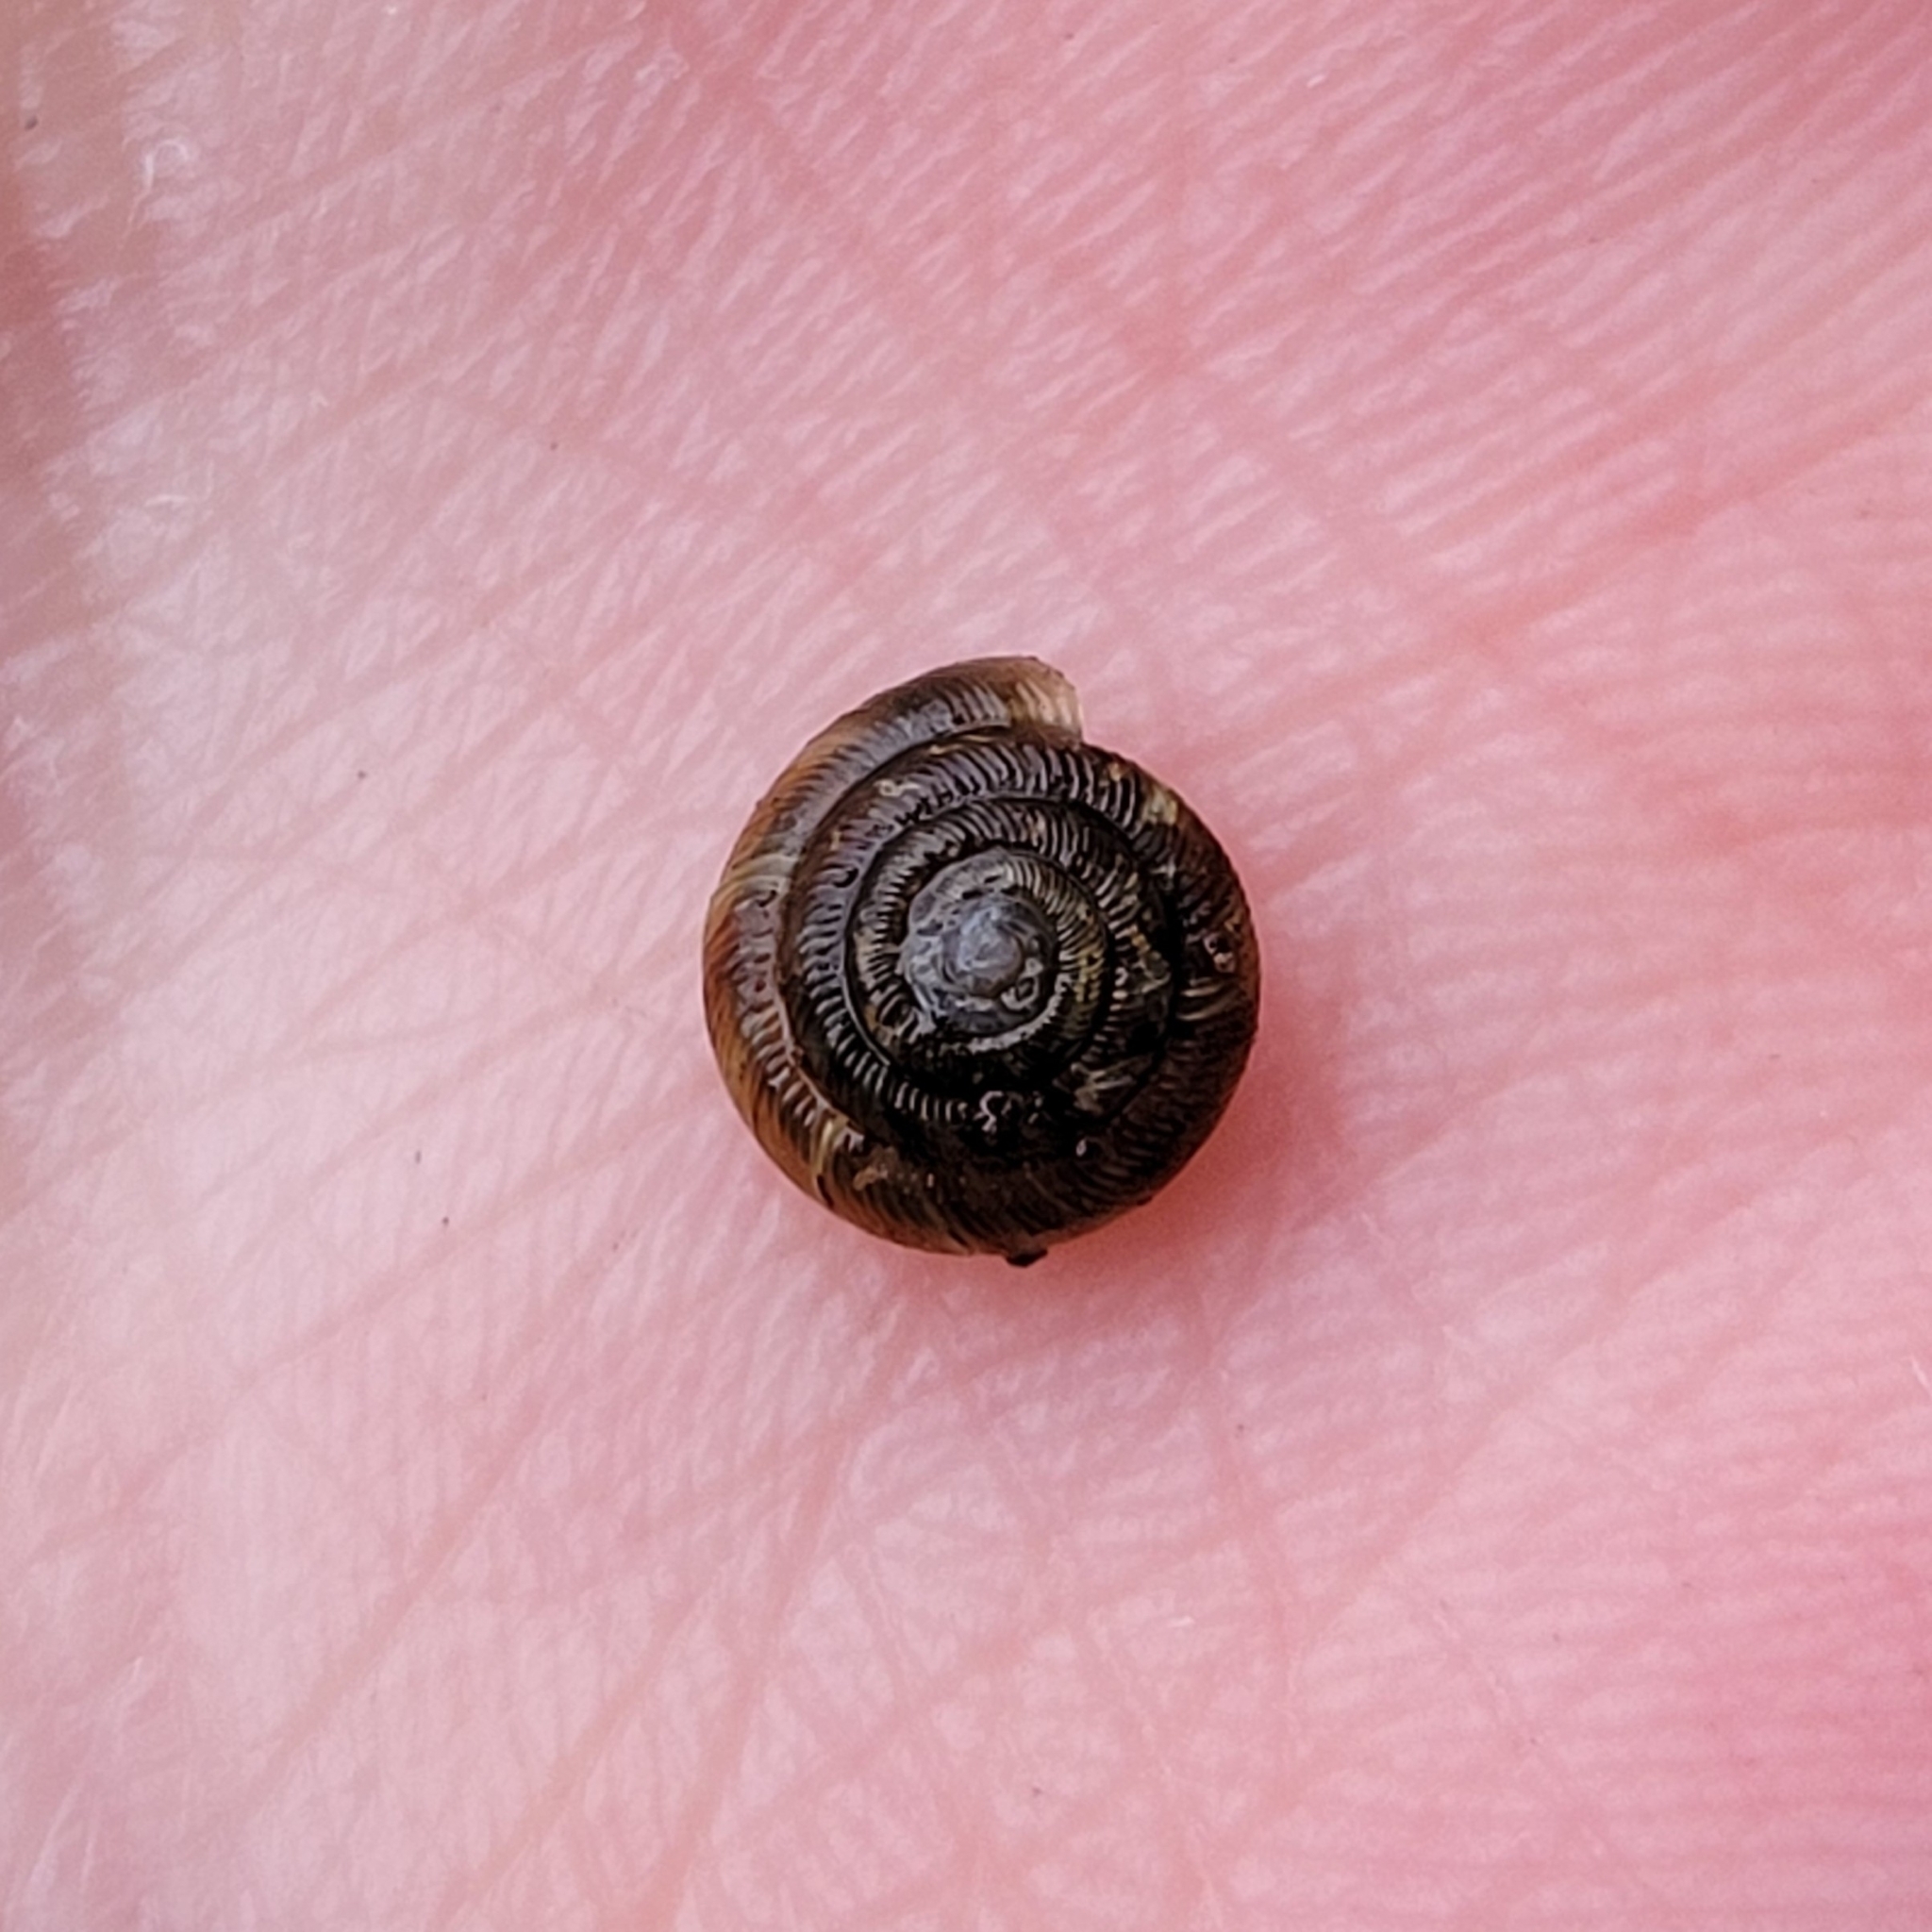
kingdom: Animalia
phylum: Mollusca
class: Gastropoda
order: Stylommatophora
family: Discidae
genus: Discus
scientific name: Discus rotundatus
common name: Rounded snail
